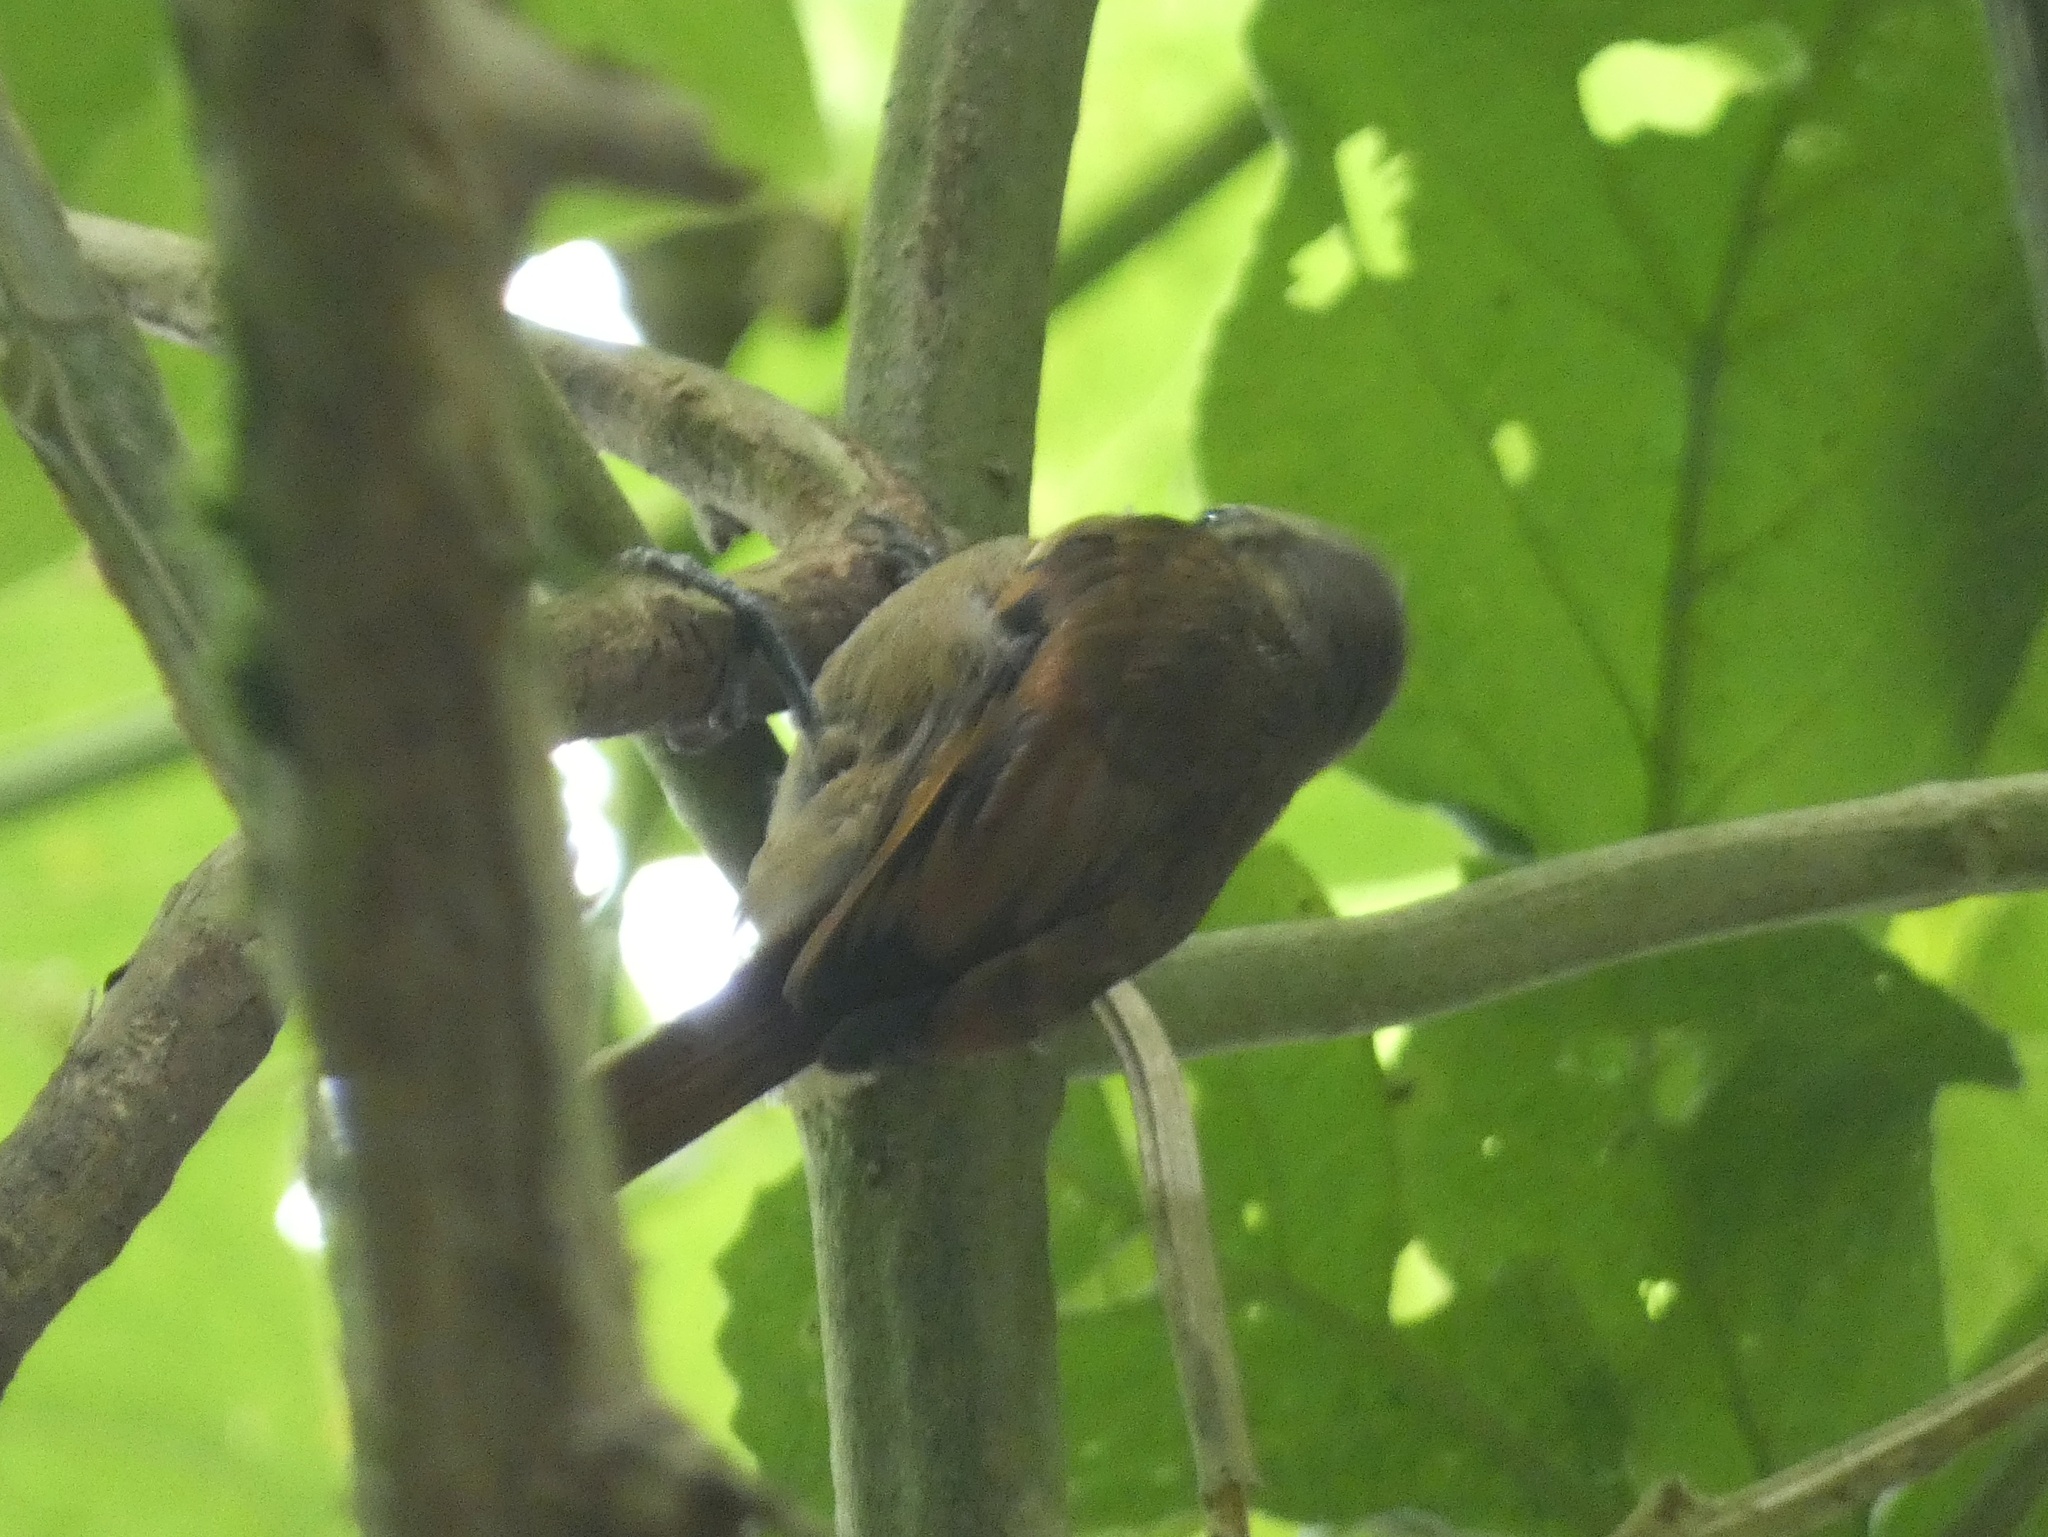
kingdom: Animalia
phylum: Chordata
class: Aves
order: Passeriformes
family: Furnariidae
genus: Xenops
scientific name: Xenops minutus
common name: Plain xenops
